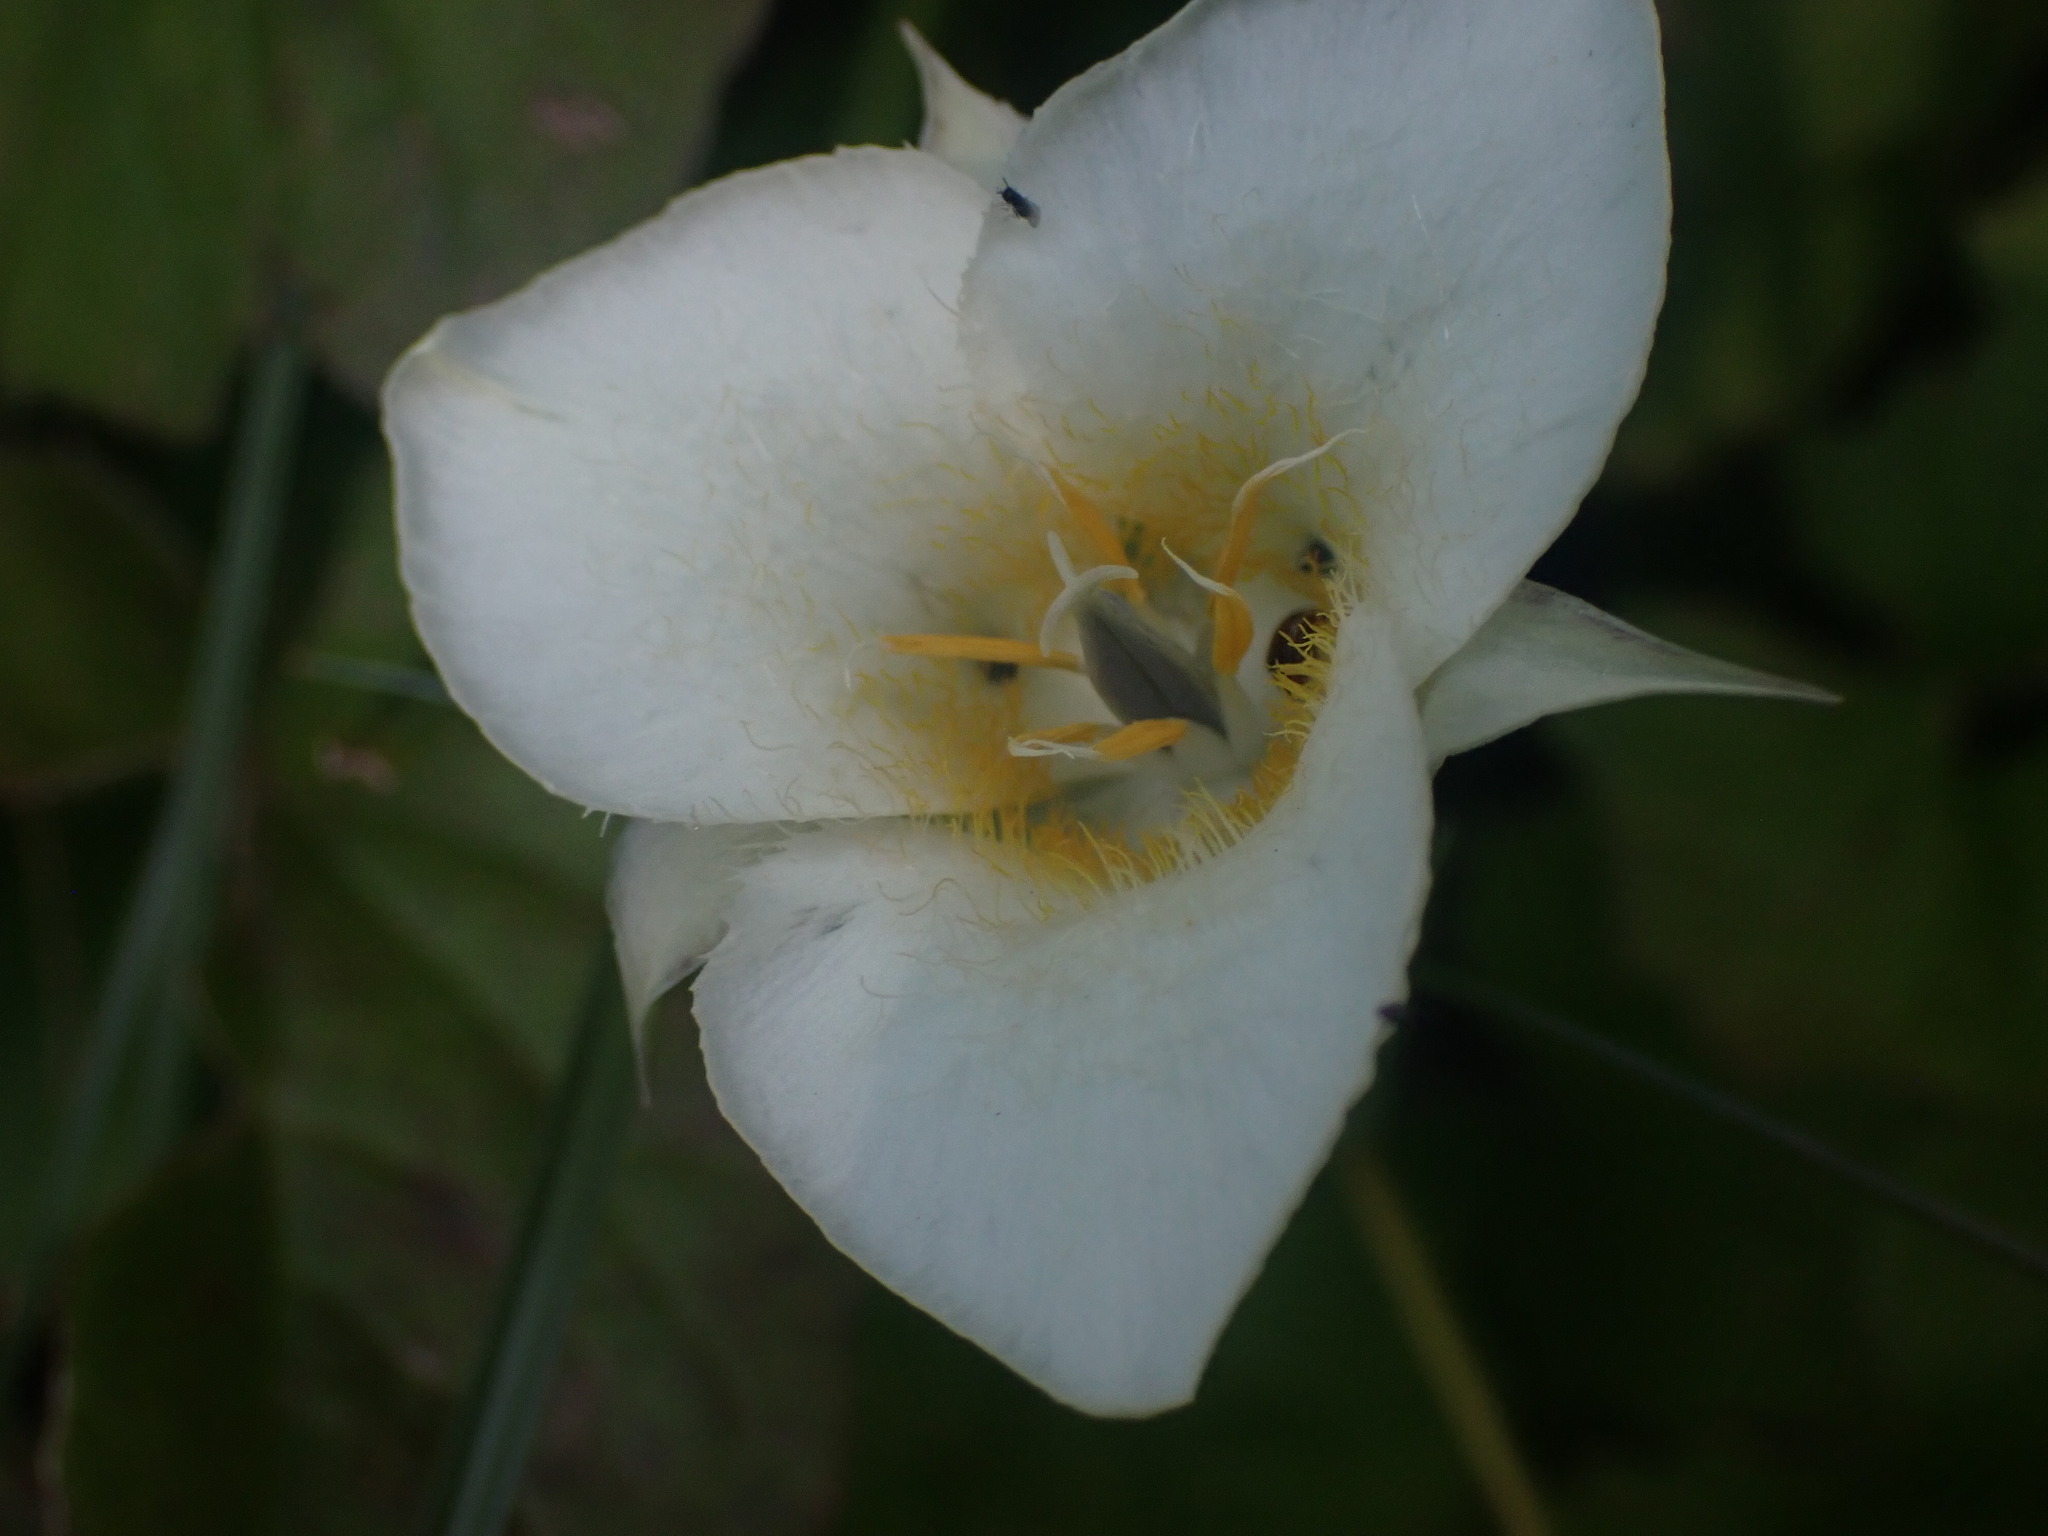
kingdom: Plantae
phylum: Tracheophyta
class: Liliopsida
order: Liliales
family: Liliaceae
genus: Calochortus
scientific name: Calochortus apiculatus
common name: Baker's mariposa lily
